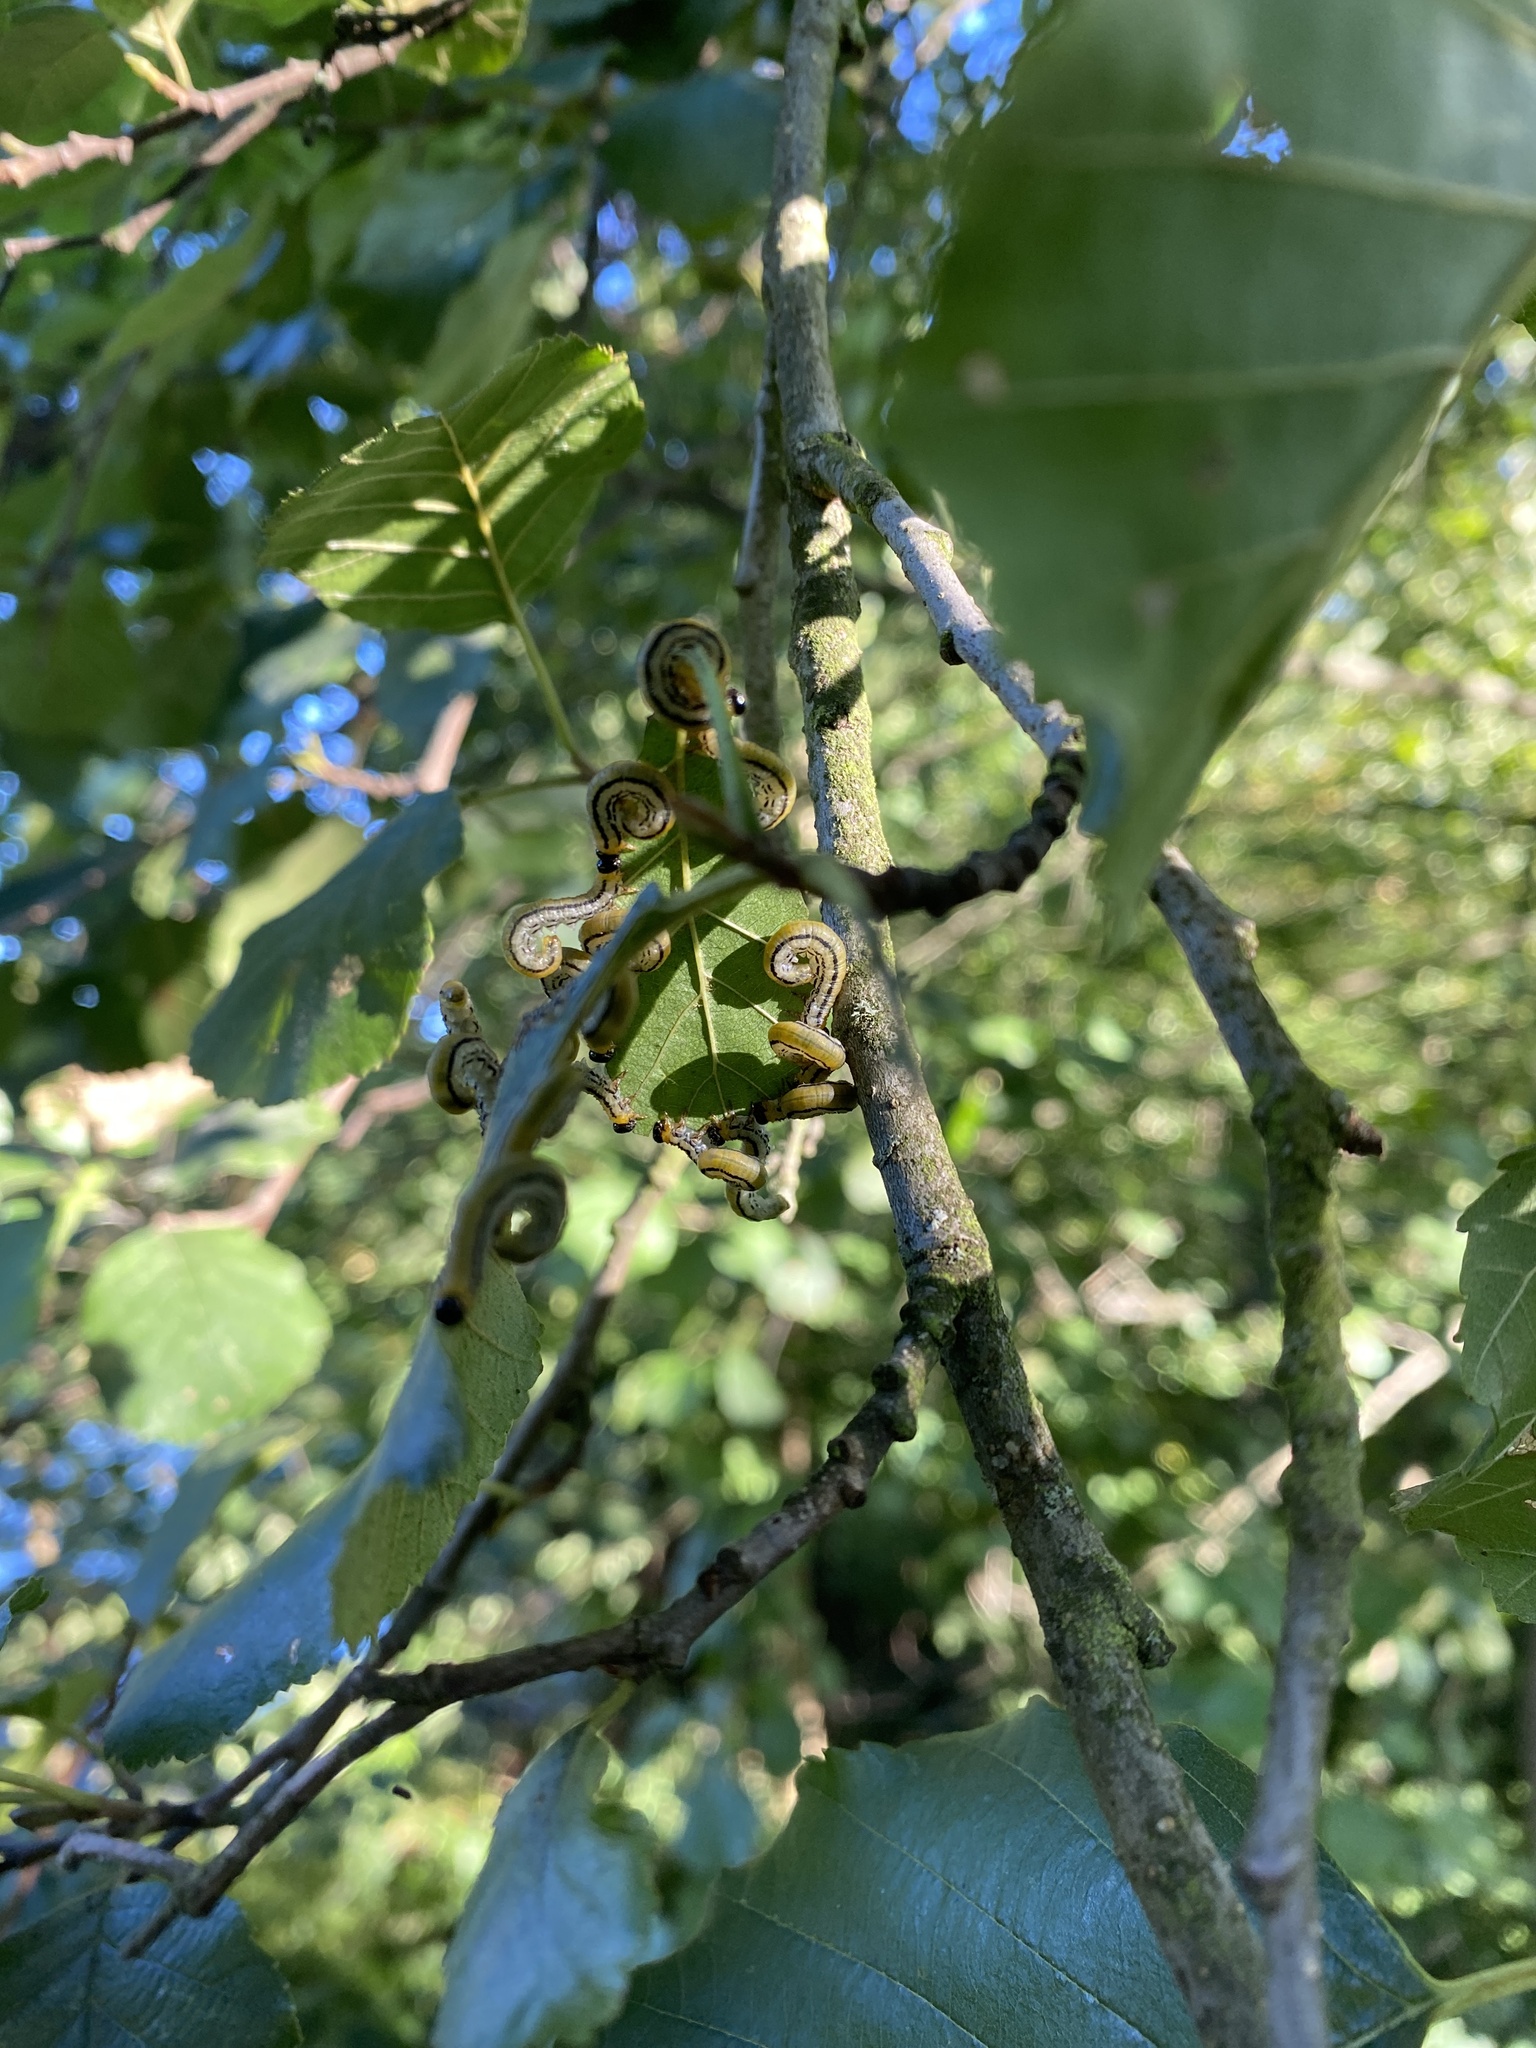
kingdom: Animalia
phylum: Arthropoda
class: Insecta
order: Hymenoptera
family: Tenthredinidae
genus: Hemichroa
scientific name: Hemichroa crocea
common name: Striped alder sawfly
